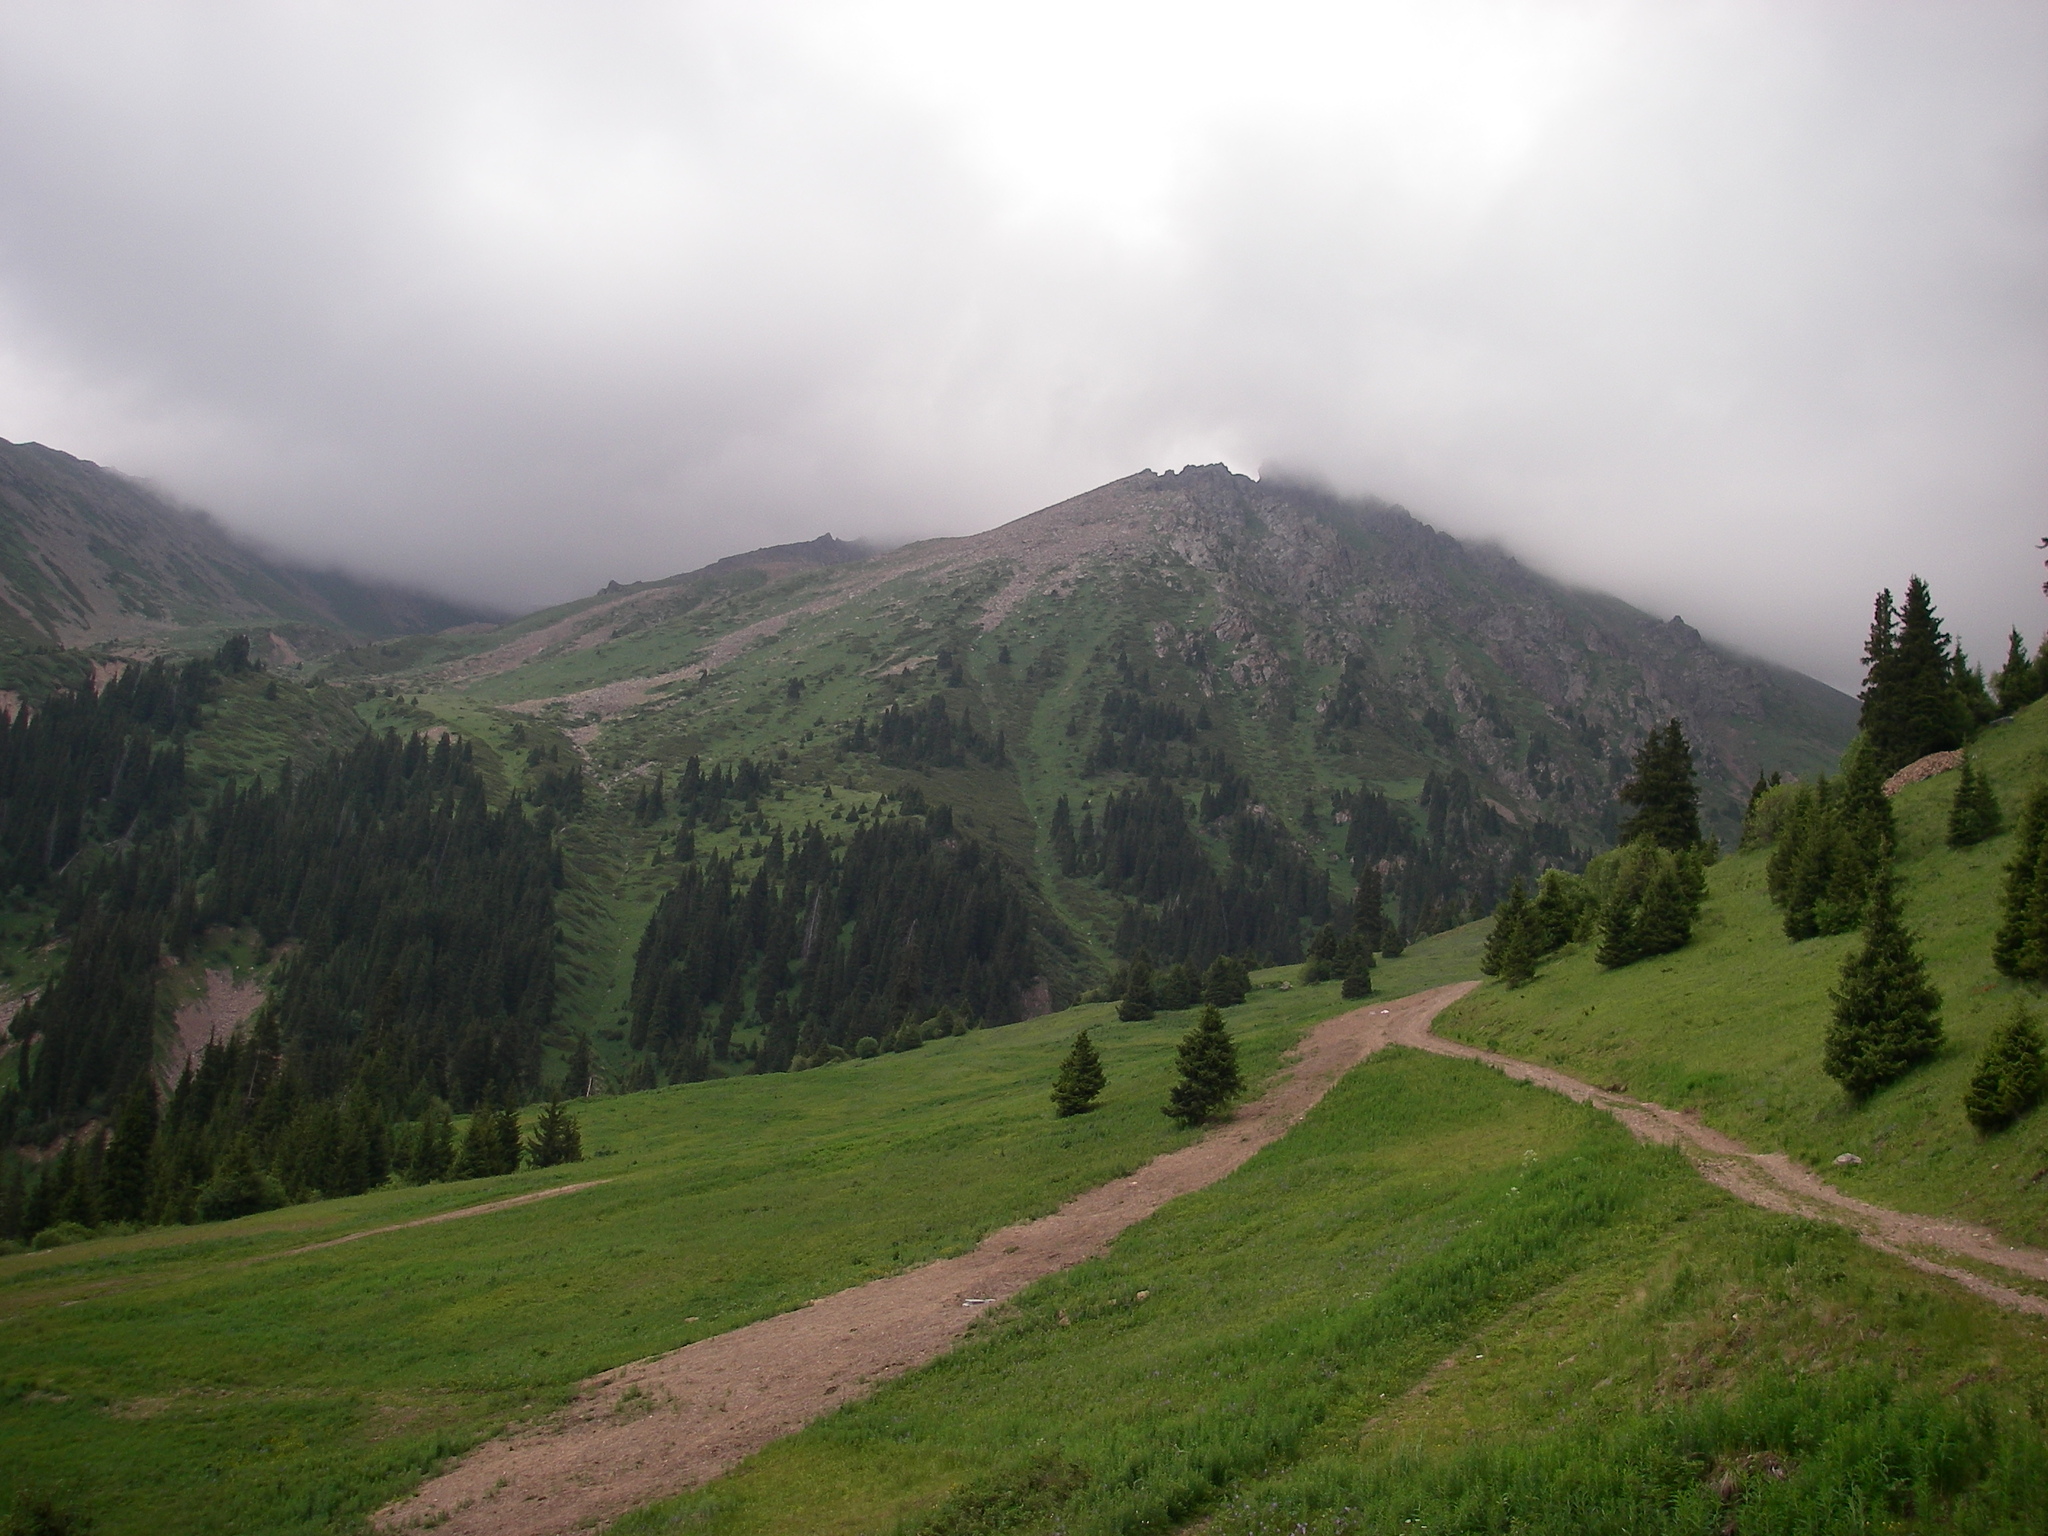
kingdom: Plantae
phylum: Tracheophyta
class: Pinopsida
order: Pinales
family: Pinaceae
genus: Picea
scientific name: Picea schrenkiana
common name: Asian spruce
